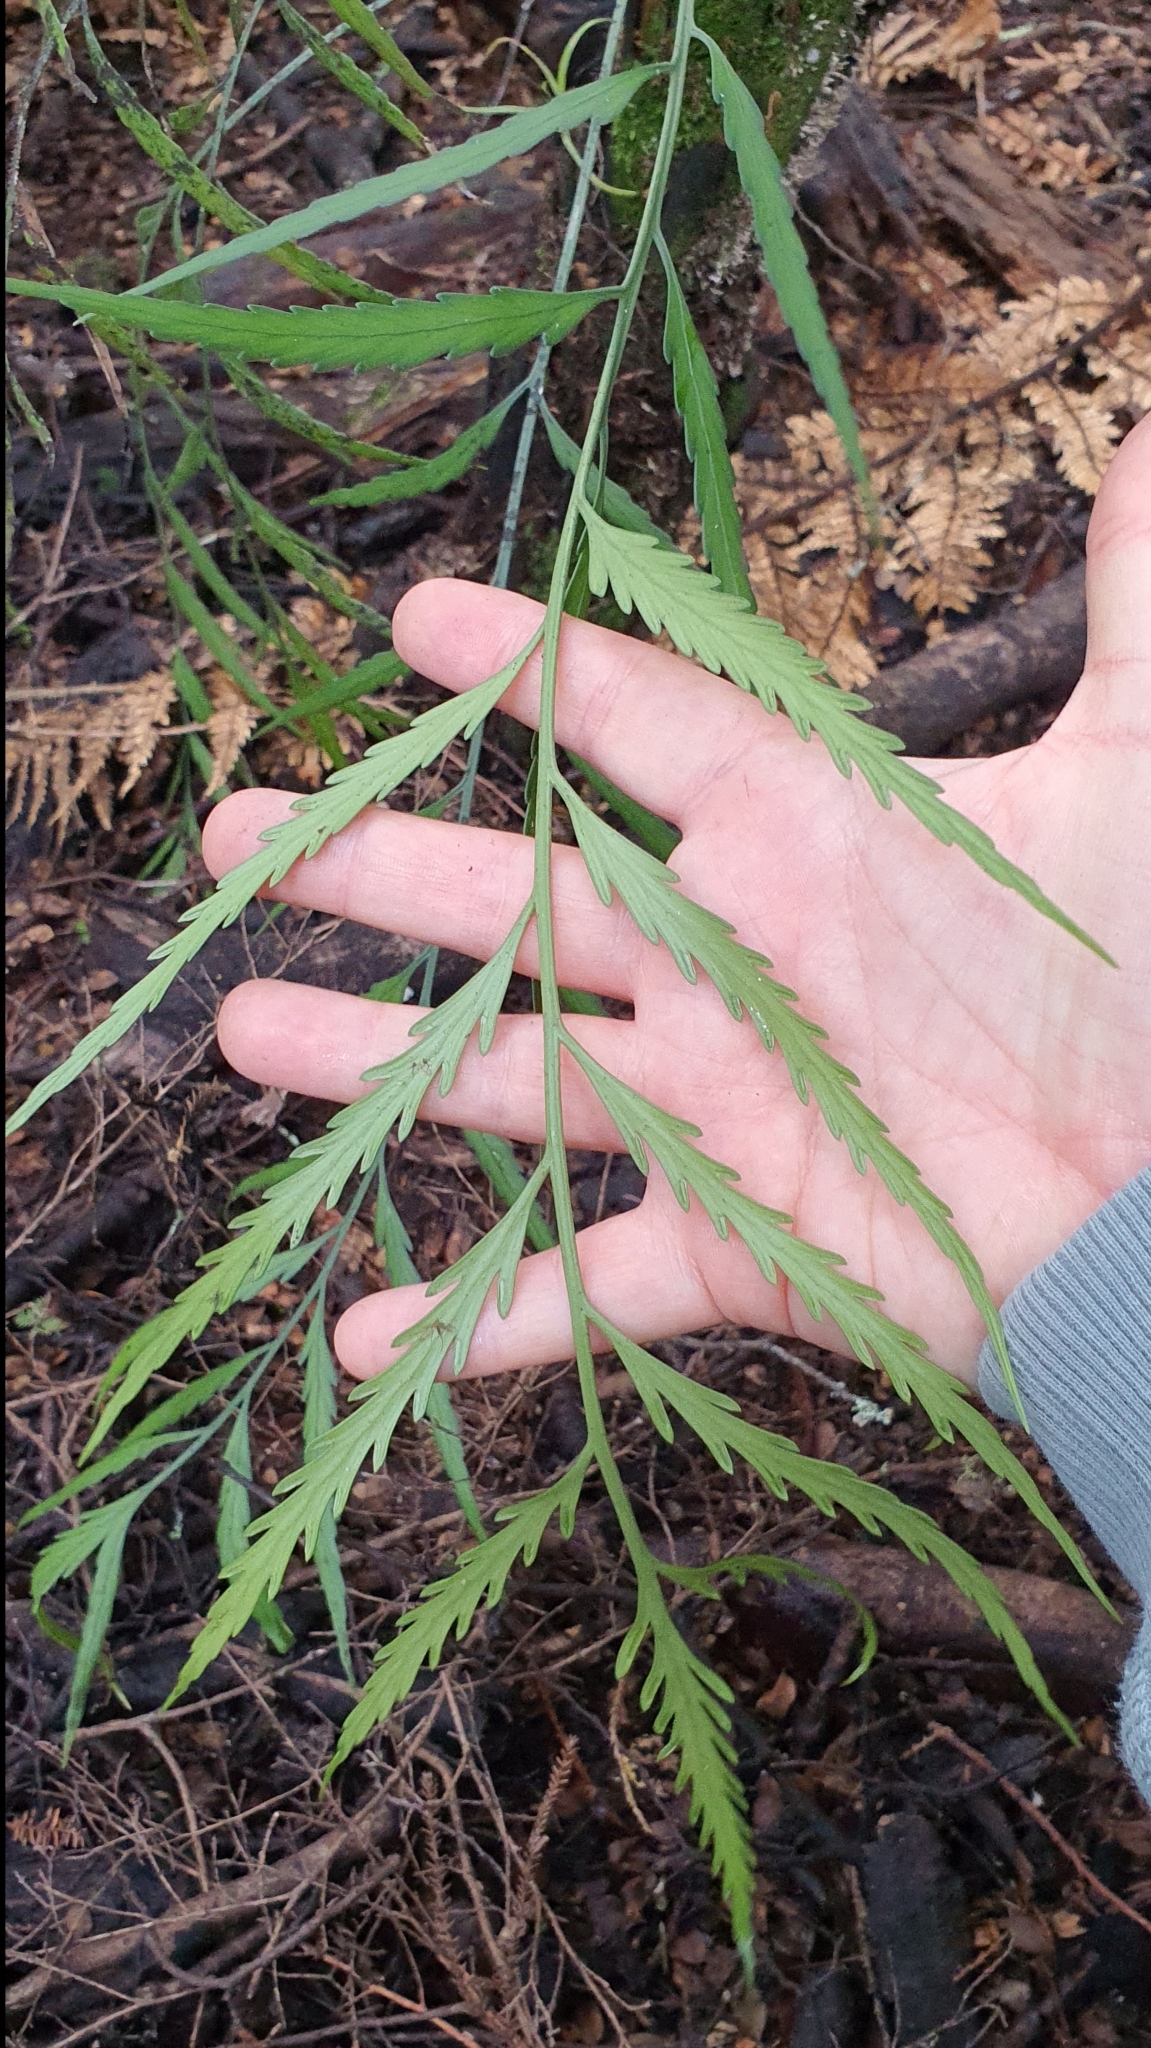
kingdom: Plantae
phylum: Tracheophyta
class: Polypodiopsida
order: Polypodiales
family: Aspleniaceae
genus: Asplenium
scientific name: Asplenium flaccidum
